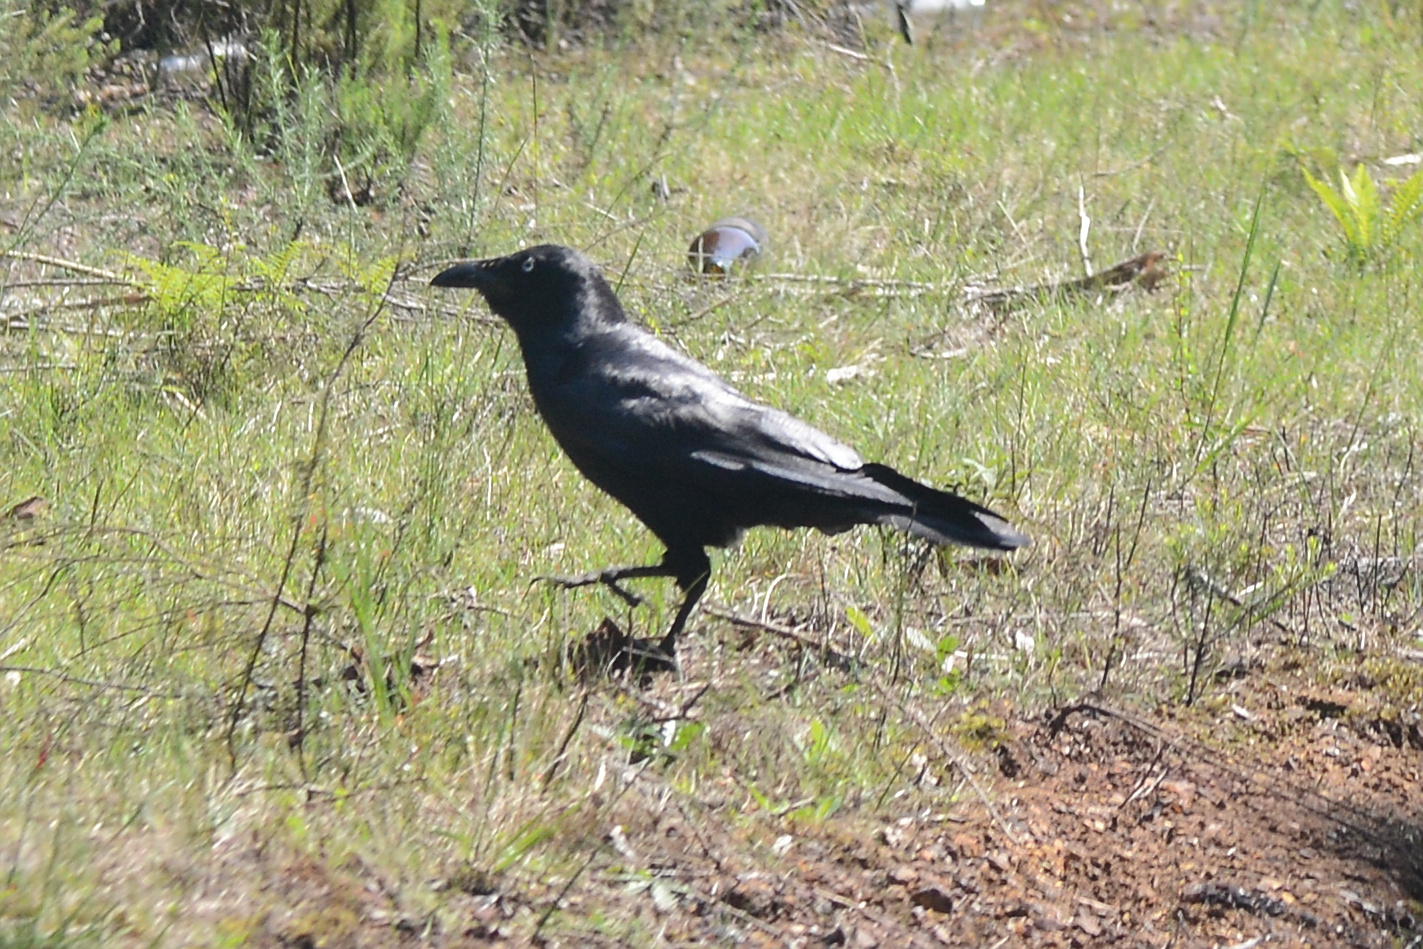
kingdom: Animalia
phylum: Chordata
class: Aves
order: Passeriformes
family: Corvidae
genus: Corvus
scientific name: Corvus tasmanicus
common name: Forest raven
